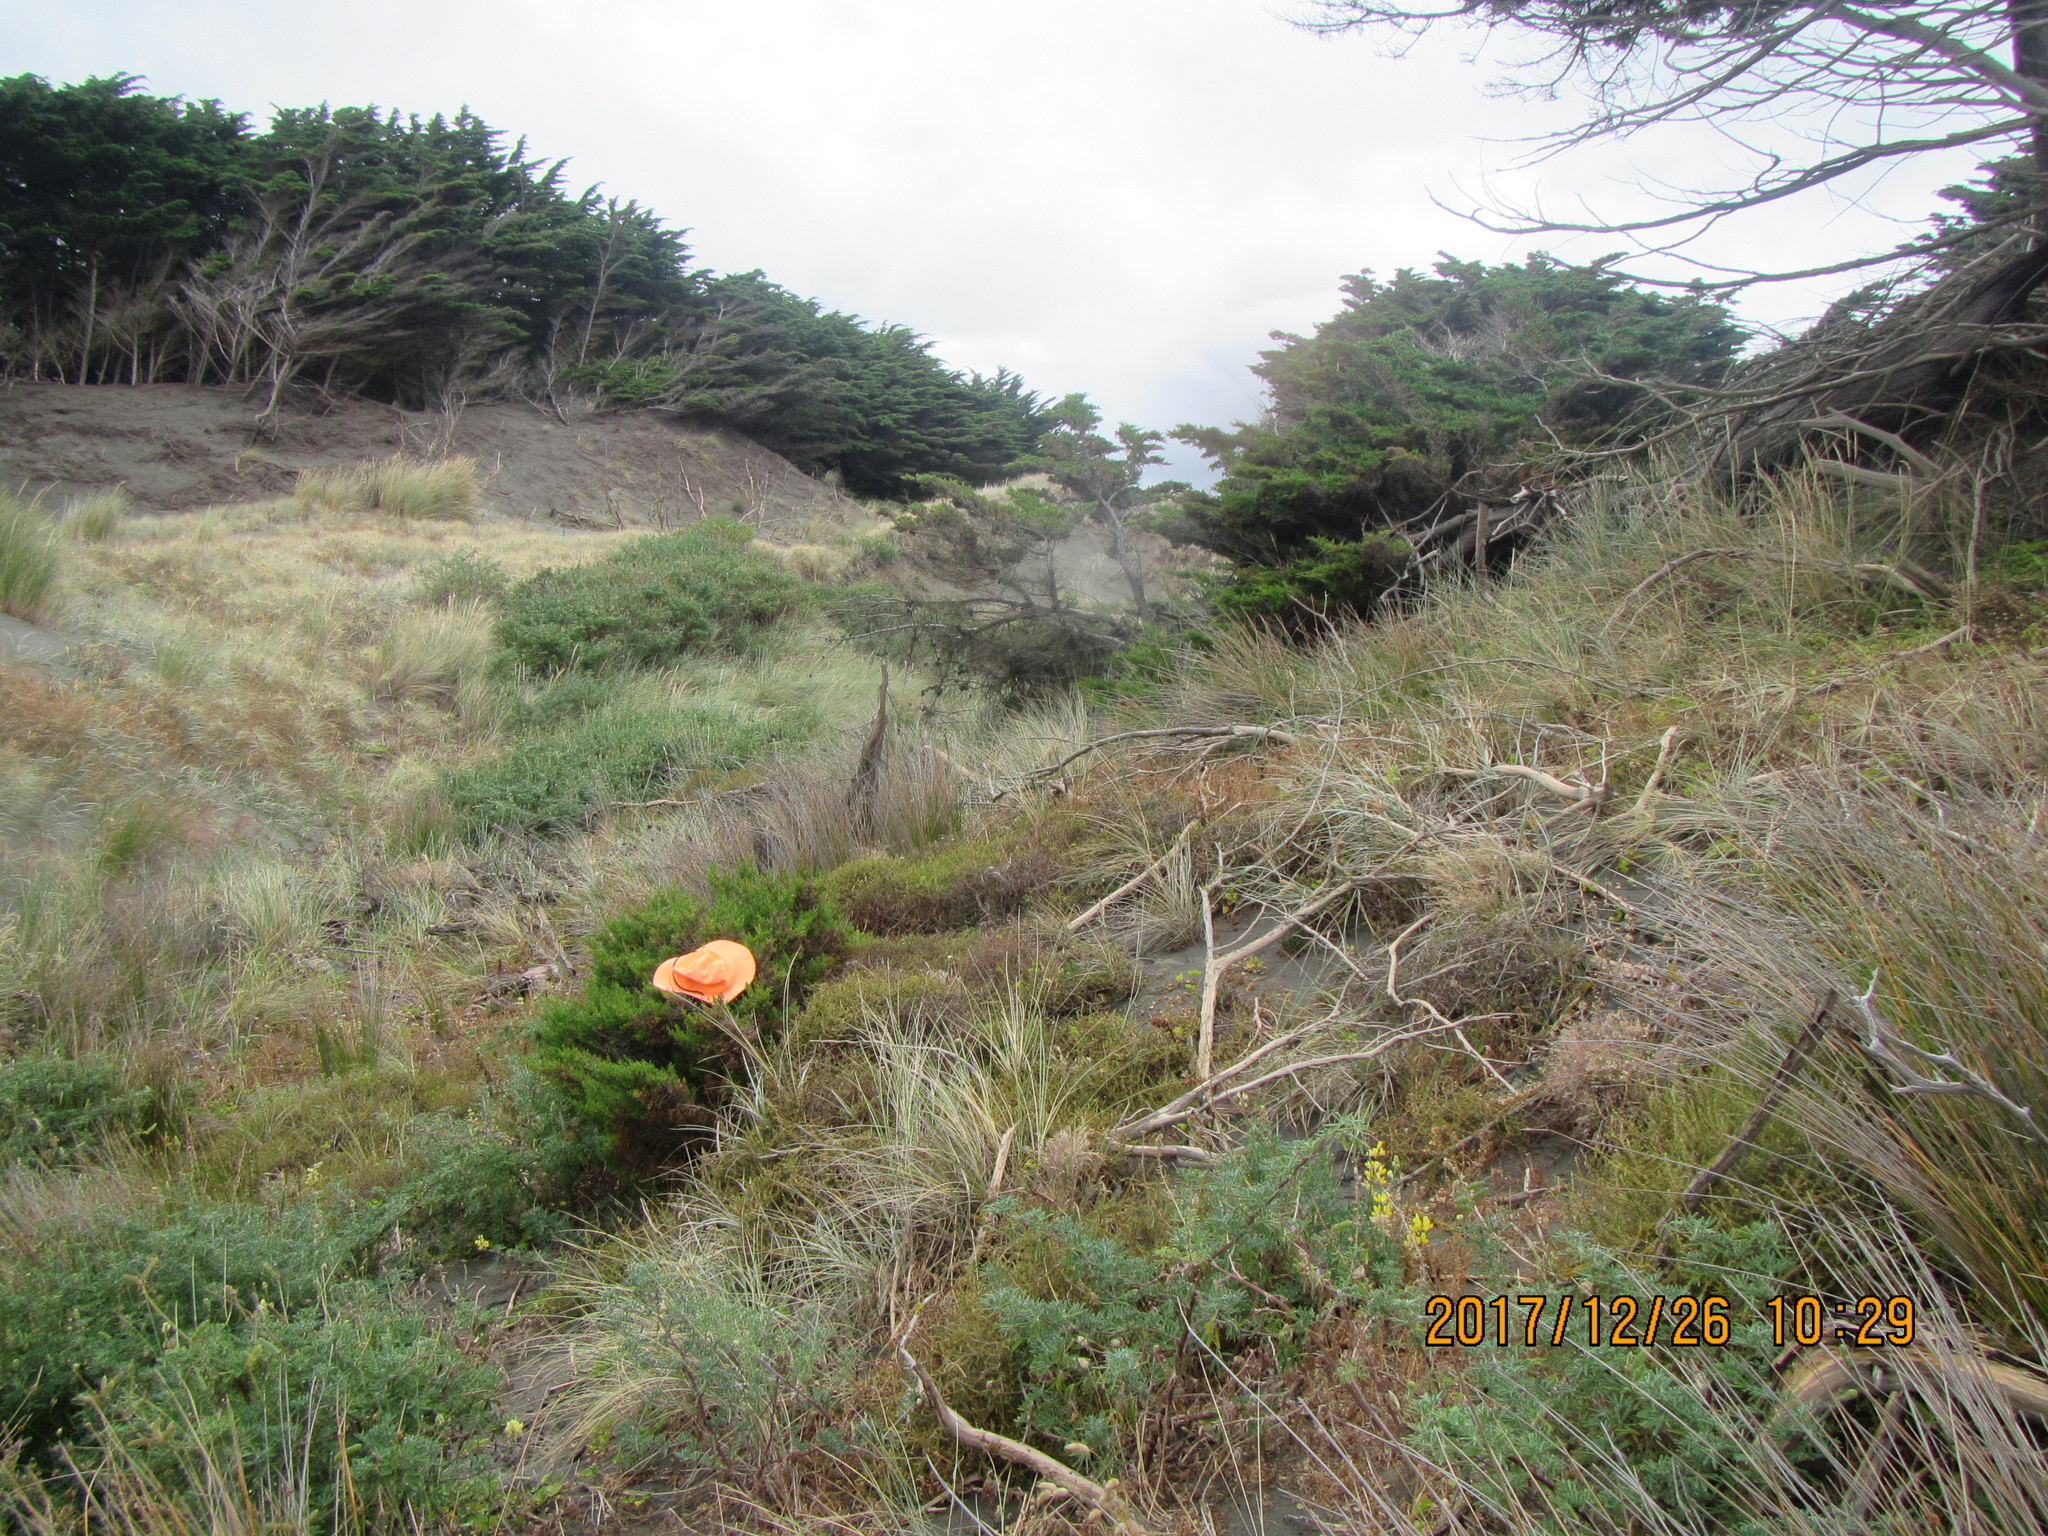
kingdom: Plantae
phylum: Tracheophyta
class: Pinopsida
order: Pinales
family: Cupressaceae
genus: Cupressus
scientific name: Cupressus macrocarpa
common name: Monterey cypress
